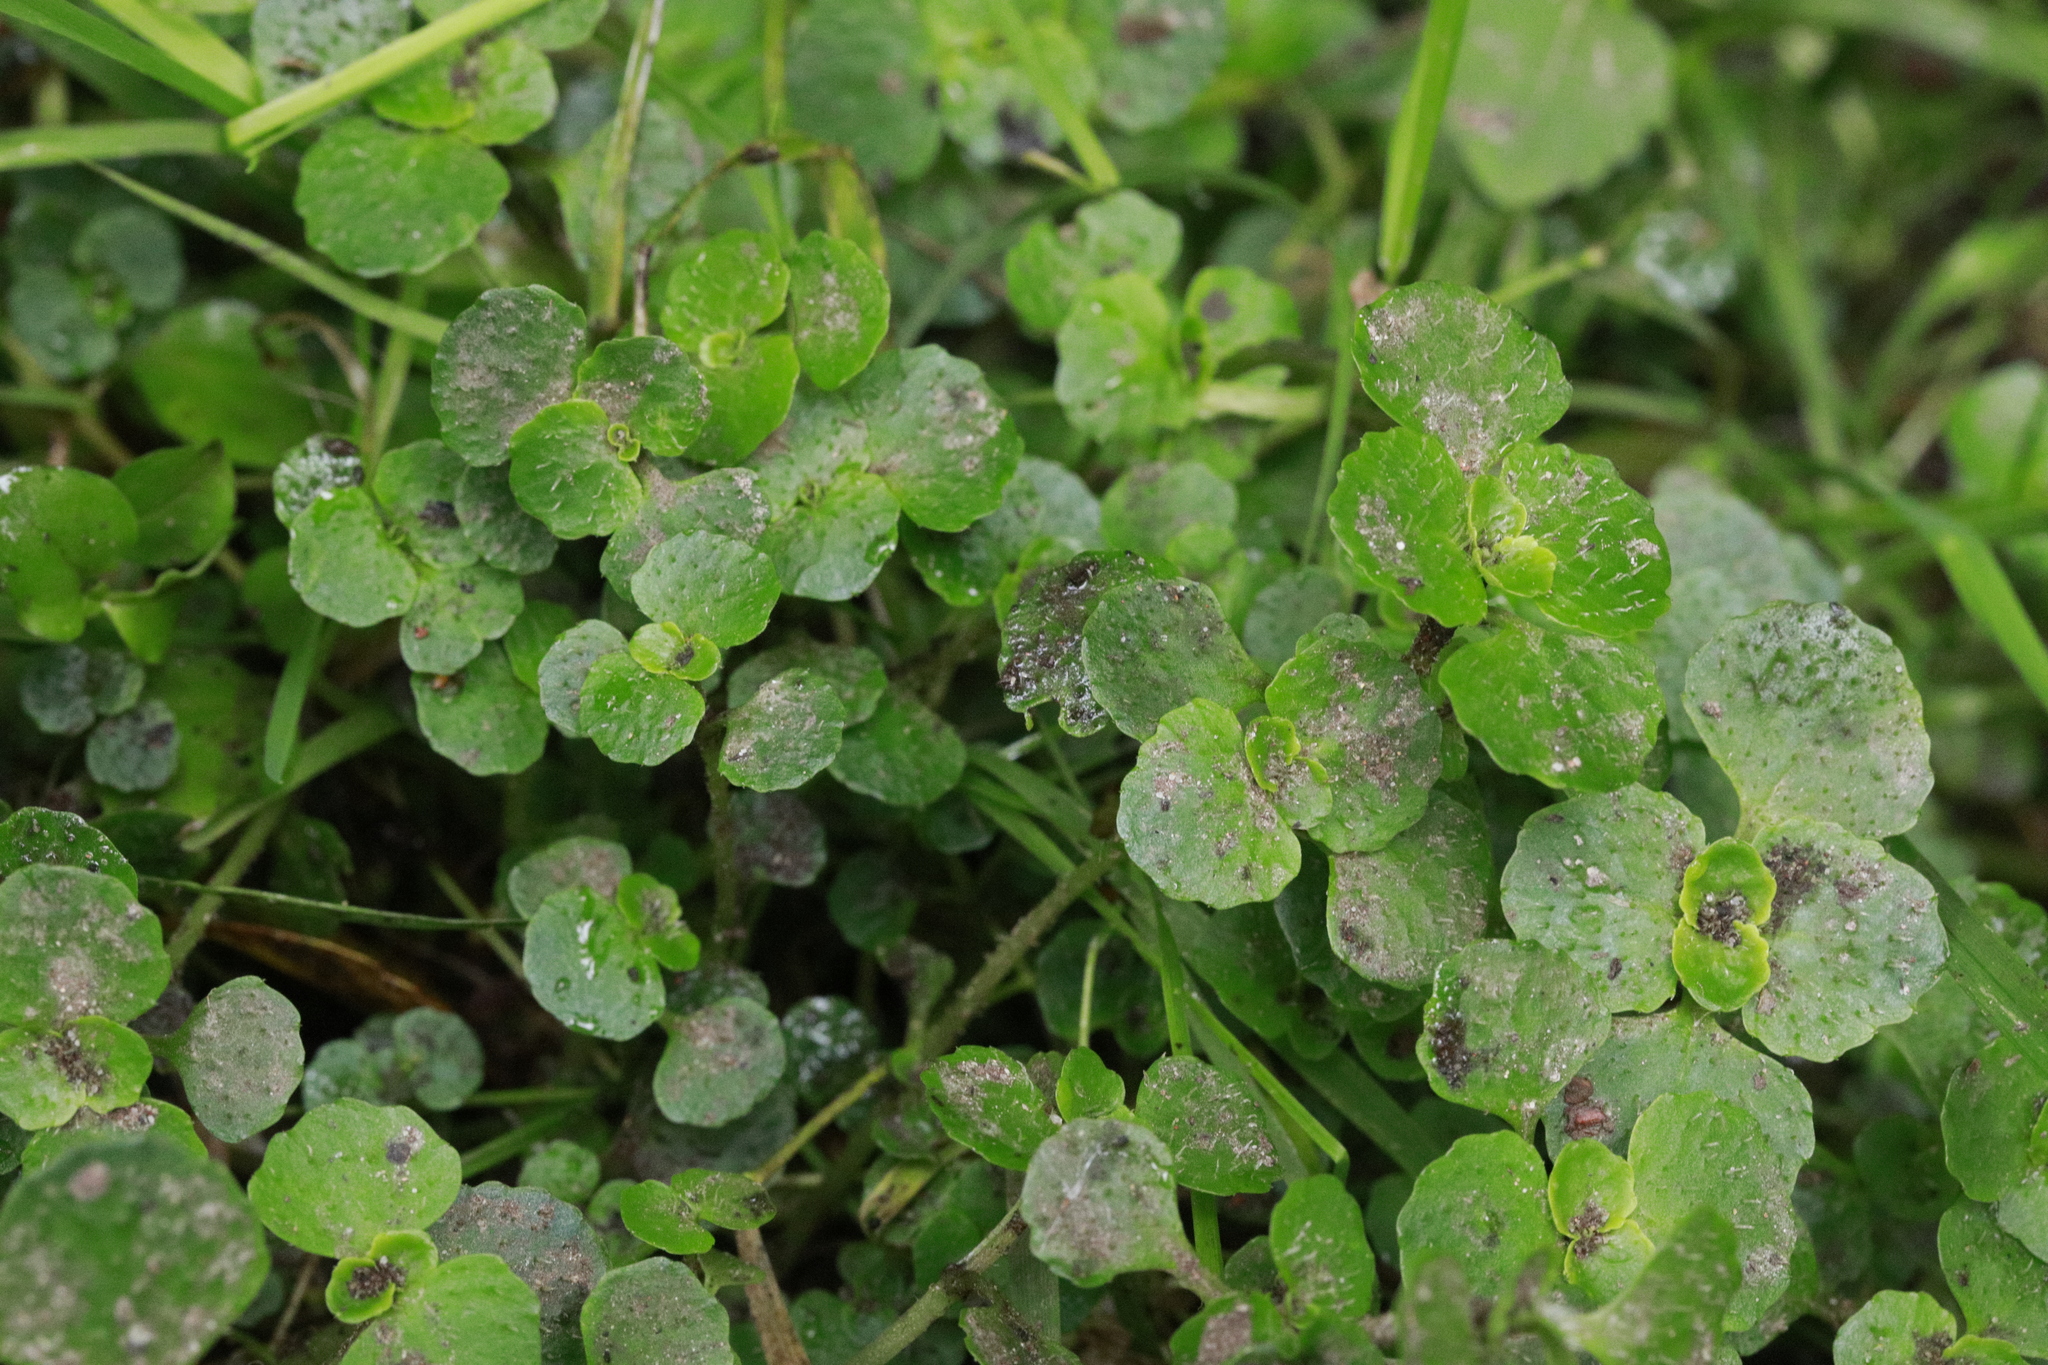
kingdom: Plantae
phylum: Tracheophyta
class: Magnoliopsida
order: Saxifragales
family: Saxifragaceae
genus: Chrysosplenium
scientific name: Chrysosplenium oppositifolium
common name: Opposite-leaved golden-saxifrage
